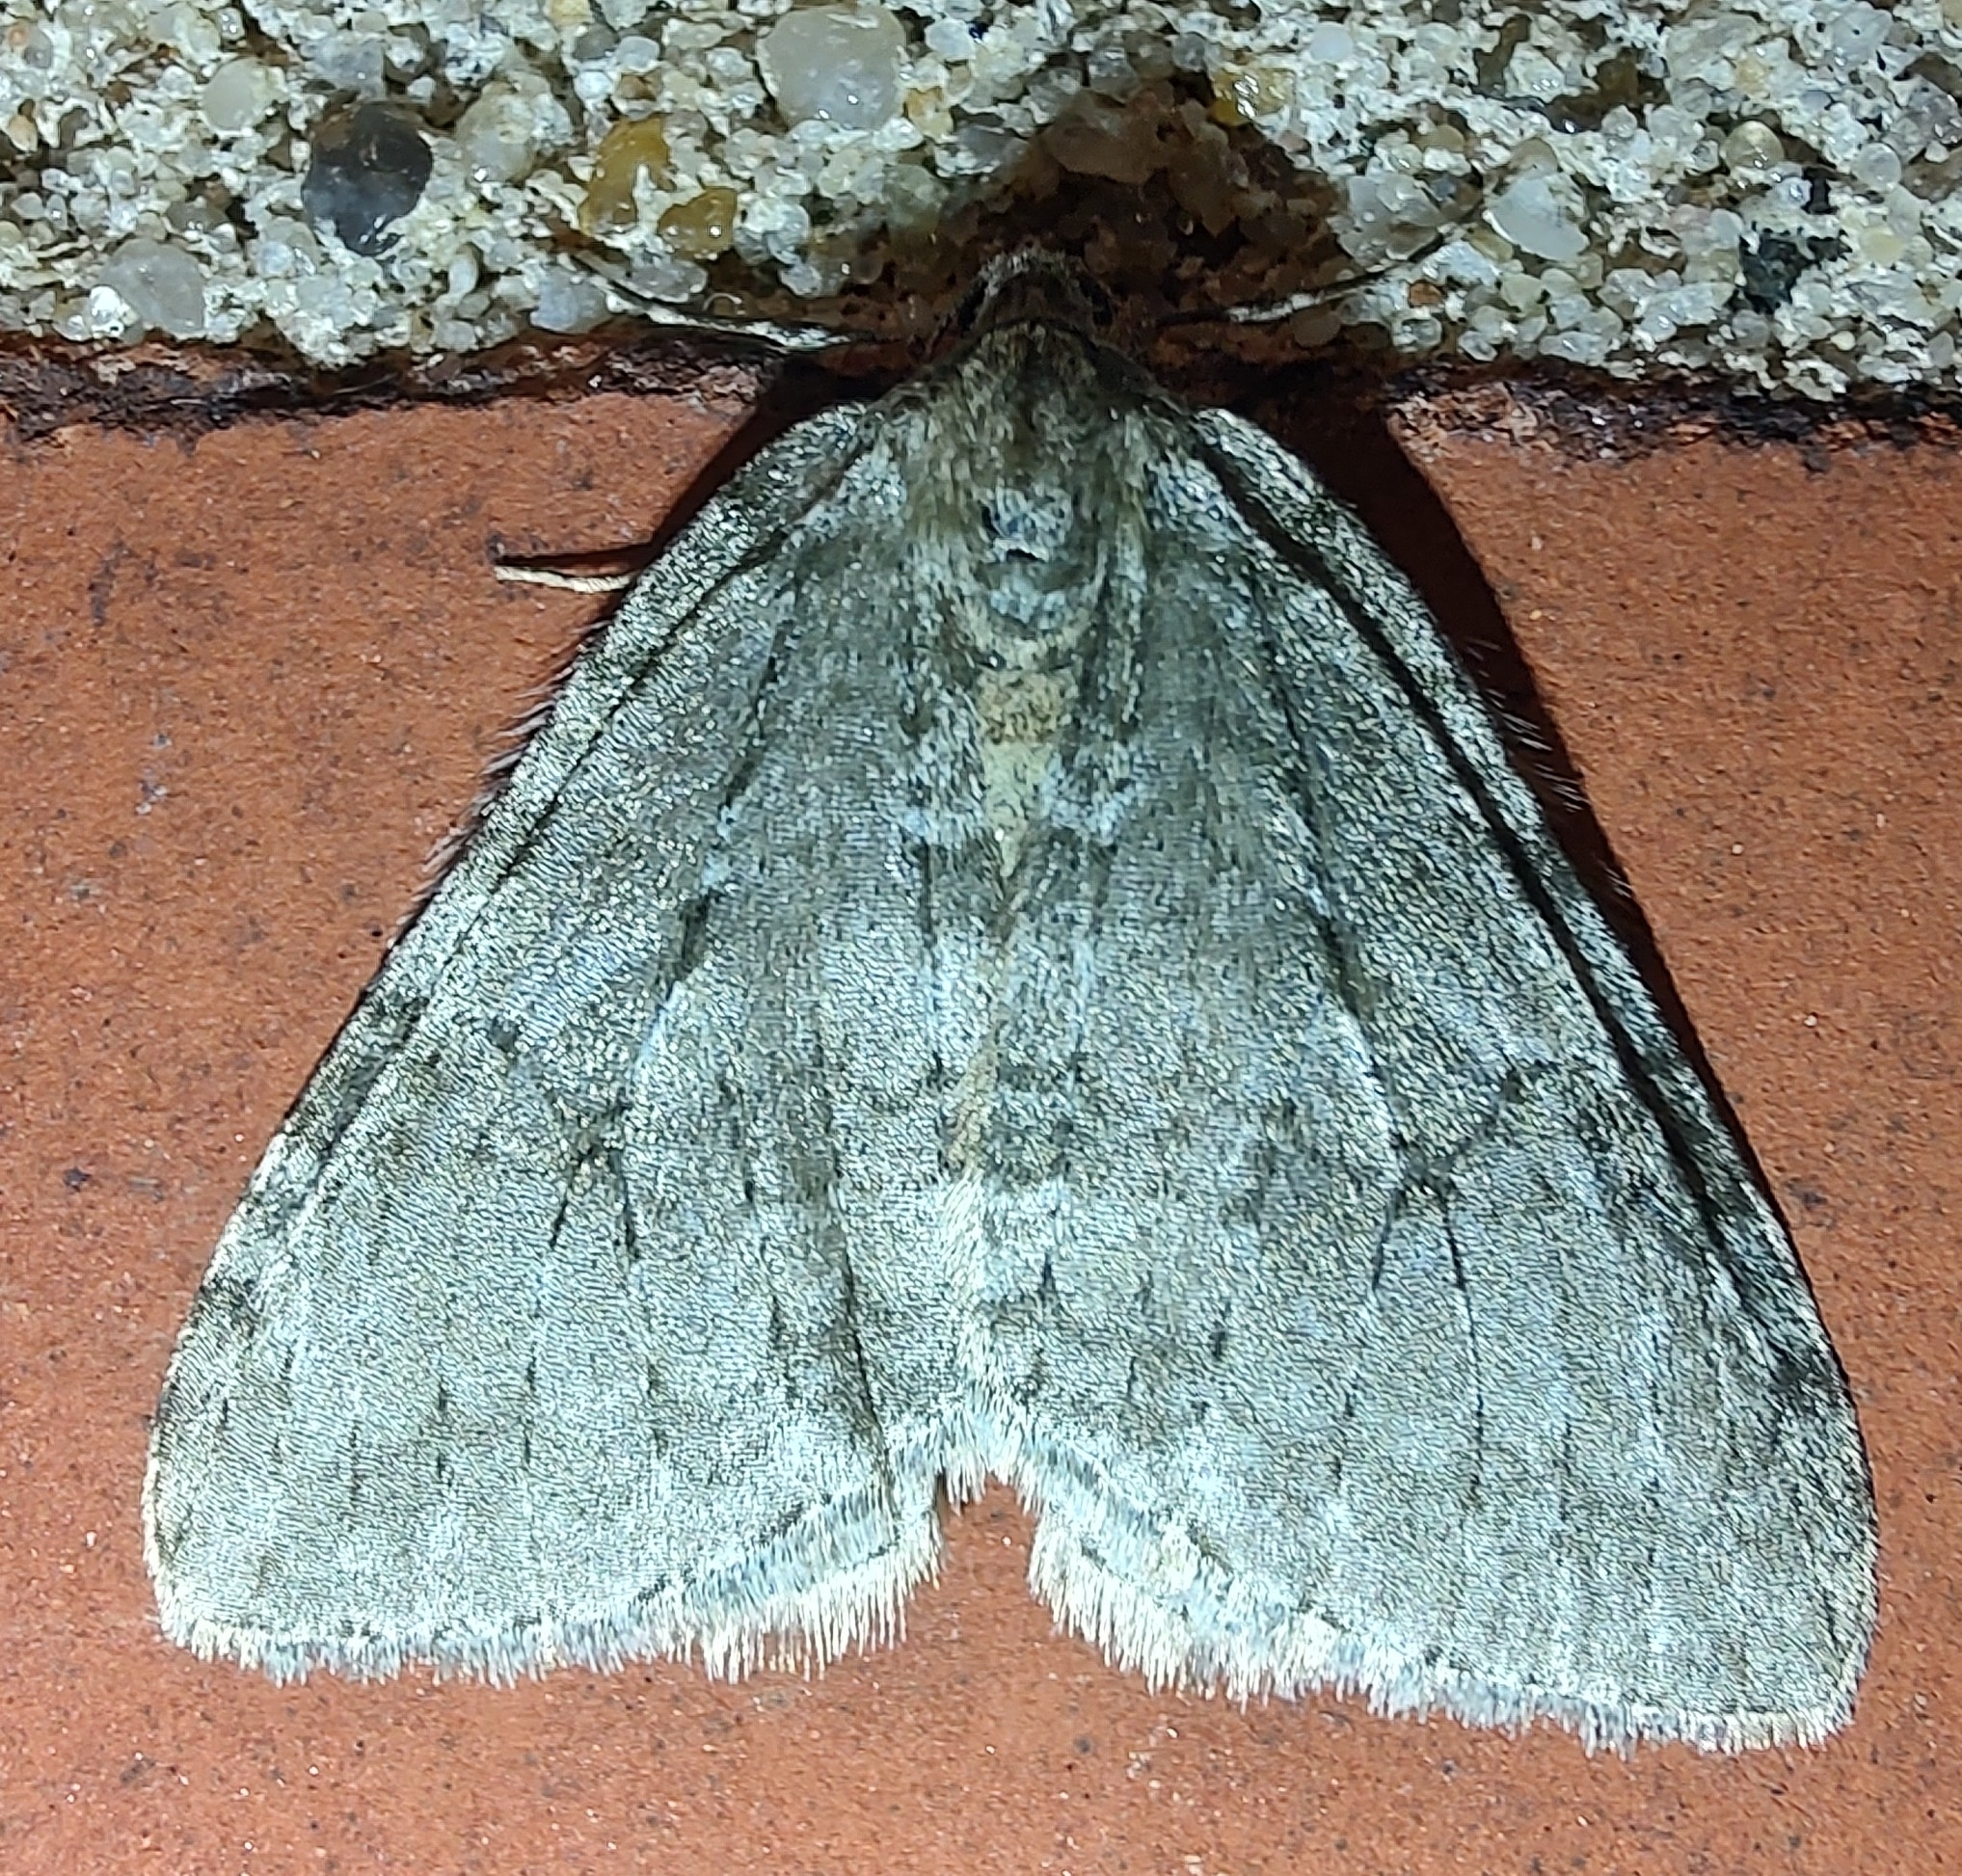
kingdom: Animalia
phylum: Arthropoda
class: Insecta
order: Lepidoptera
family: Geometridae
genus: Epirrita
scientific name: Epirrita dilutata
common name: November moth
